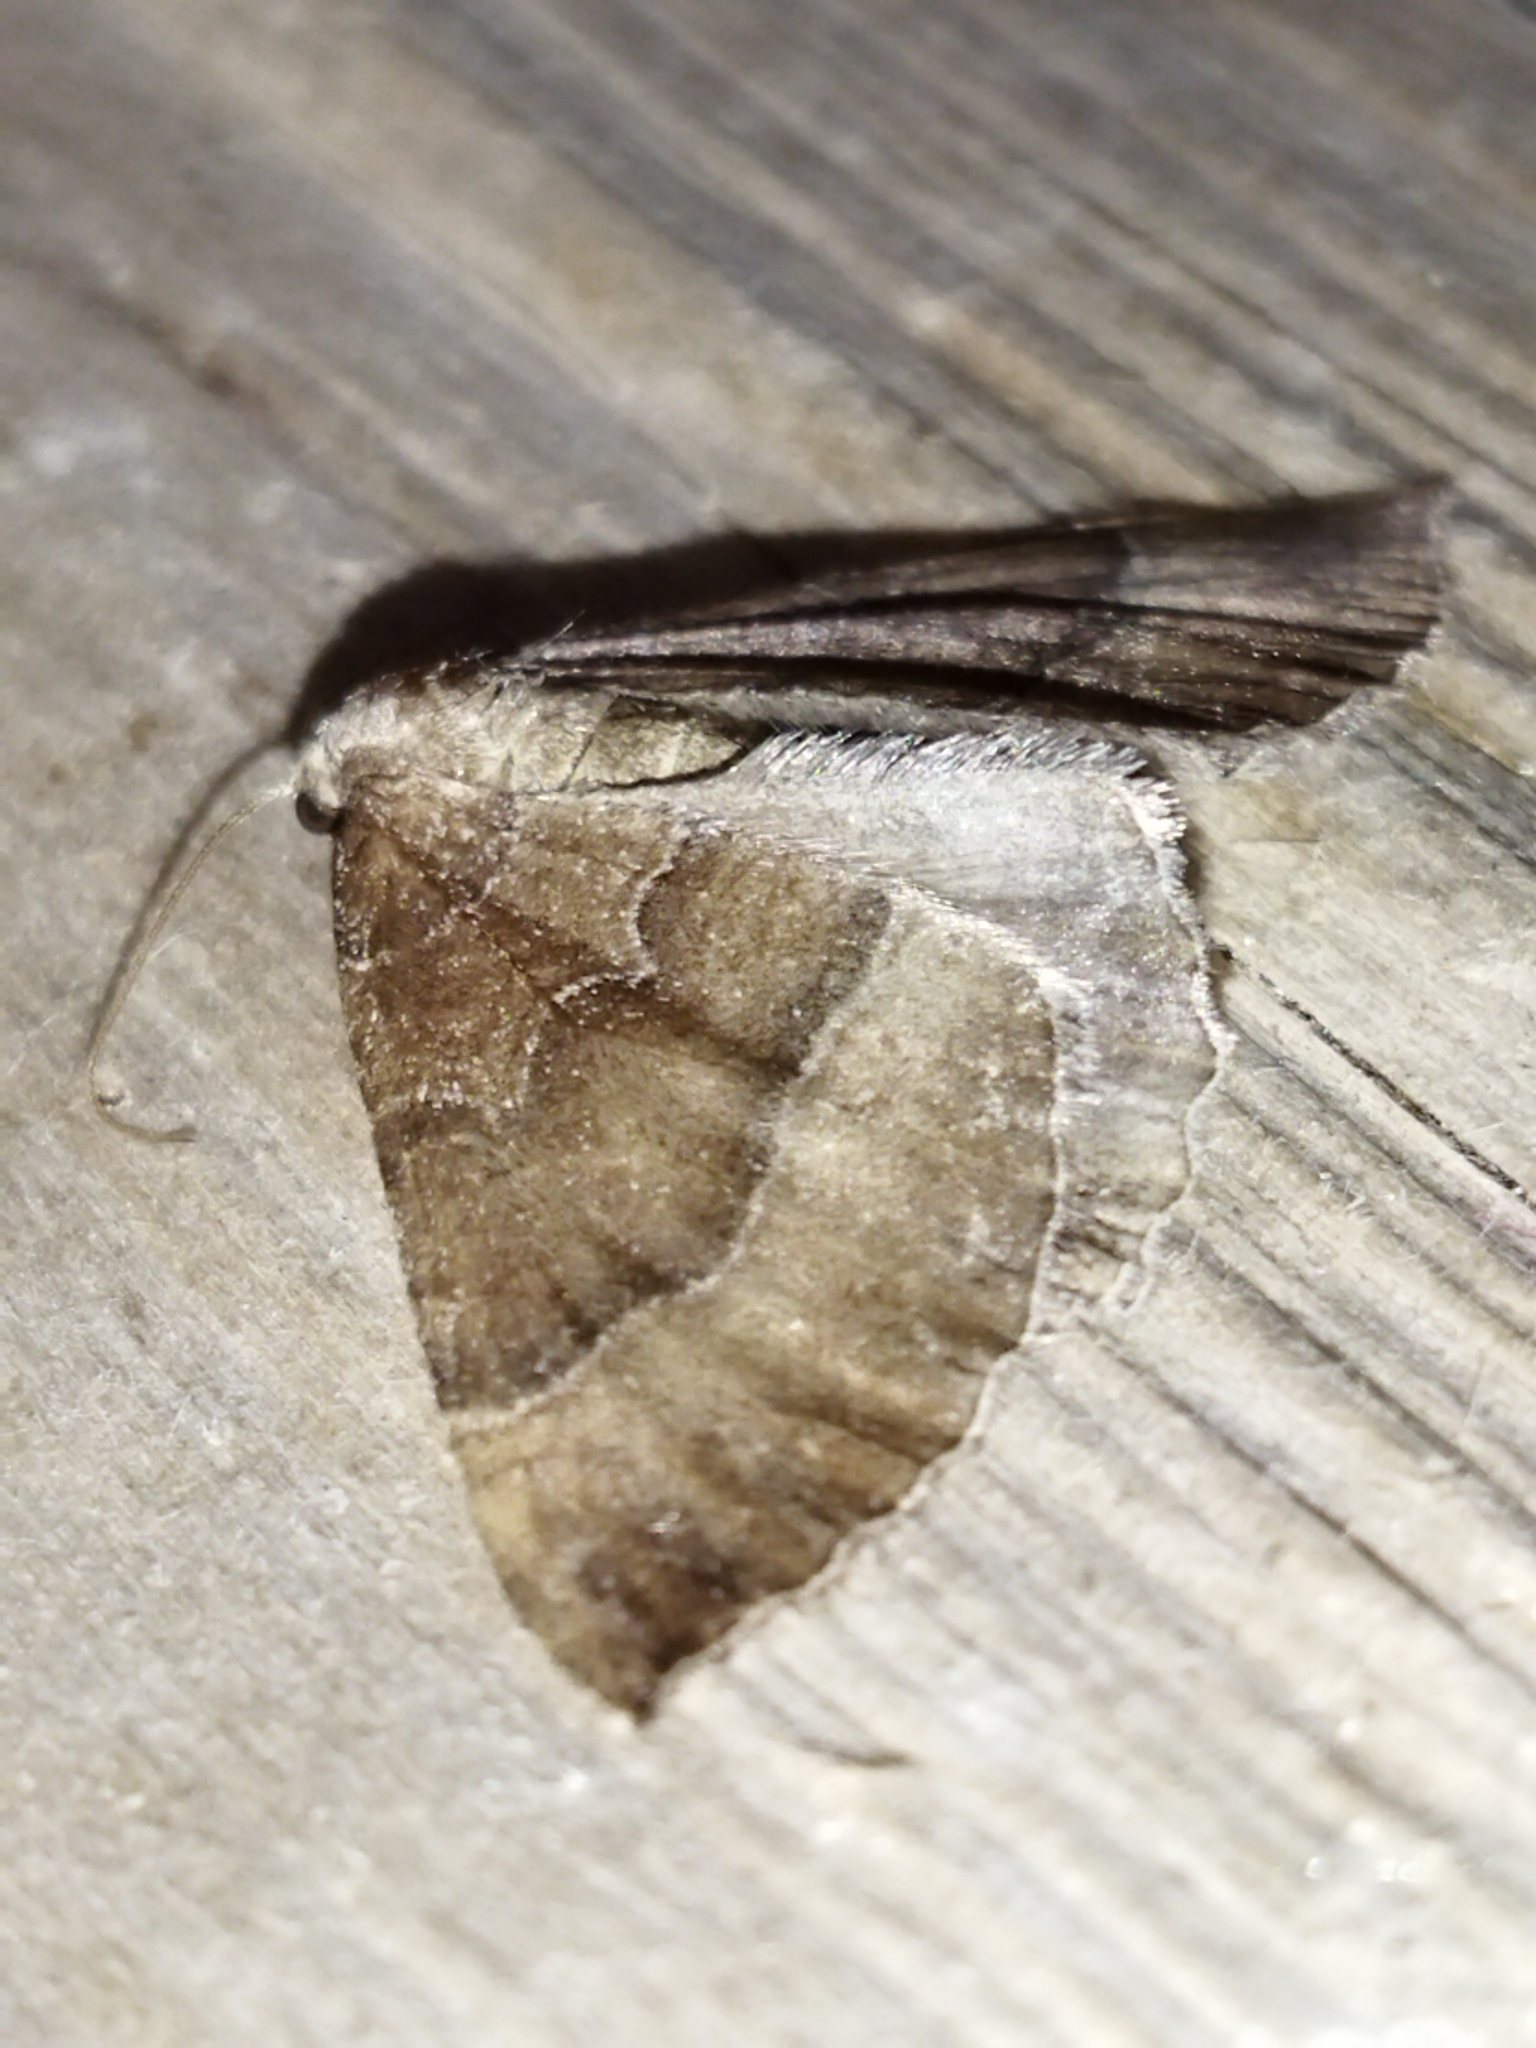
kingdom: Animalia
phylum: Arthropoda
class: Insecta
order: Lepidoptera
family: Geometridae
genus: Larentia
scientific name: Larentia clavaria
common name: Mallow
